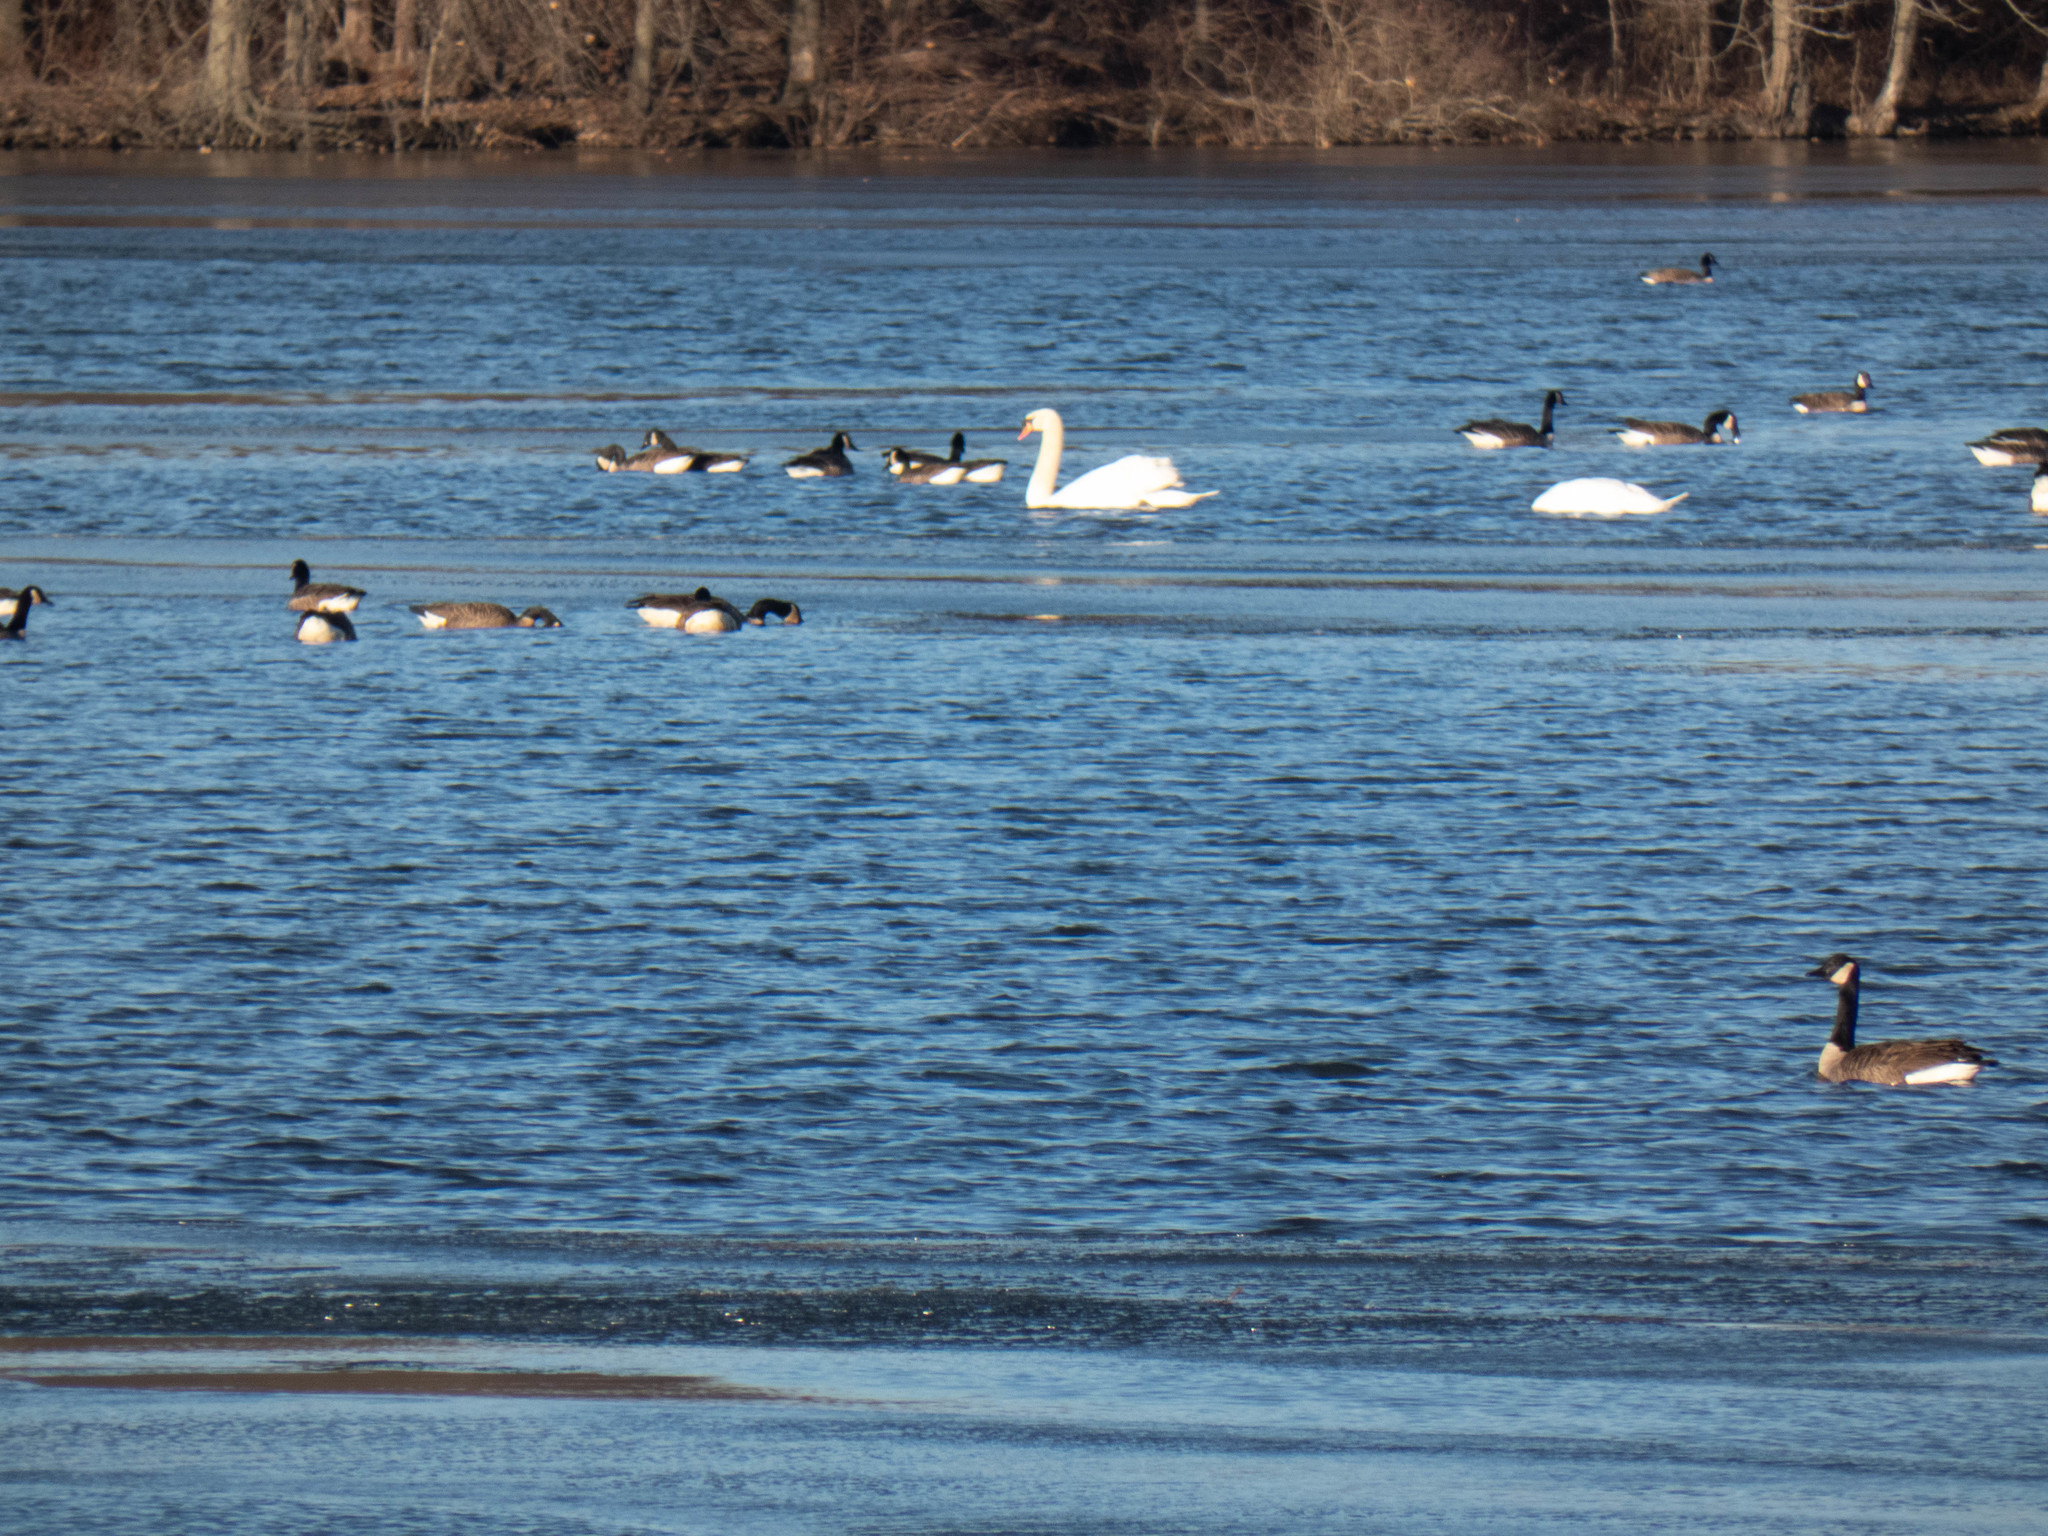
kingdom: Animalia
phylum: Chordata
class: Aves
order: Anseriformes
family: Anatidae
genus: Cygnus
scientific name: Cygnus olor
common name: Mute swan
